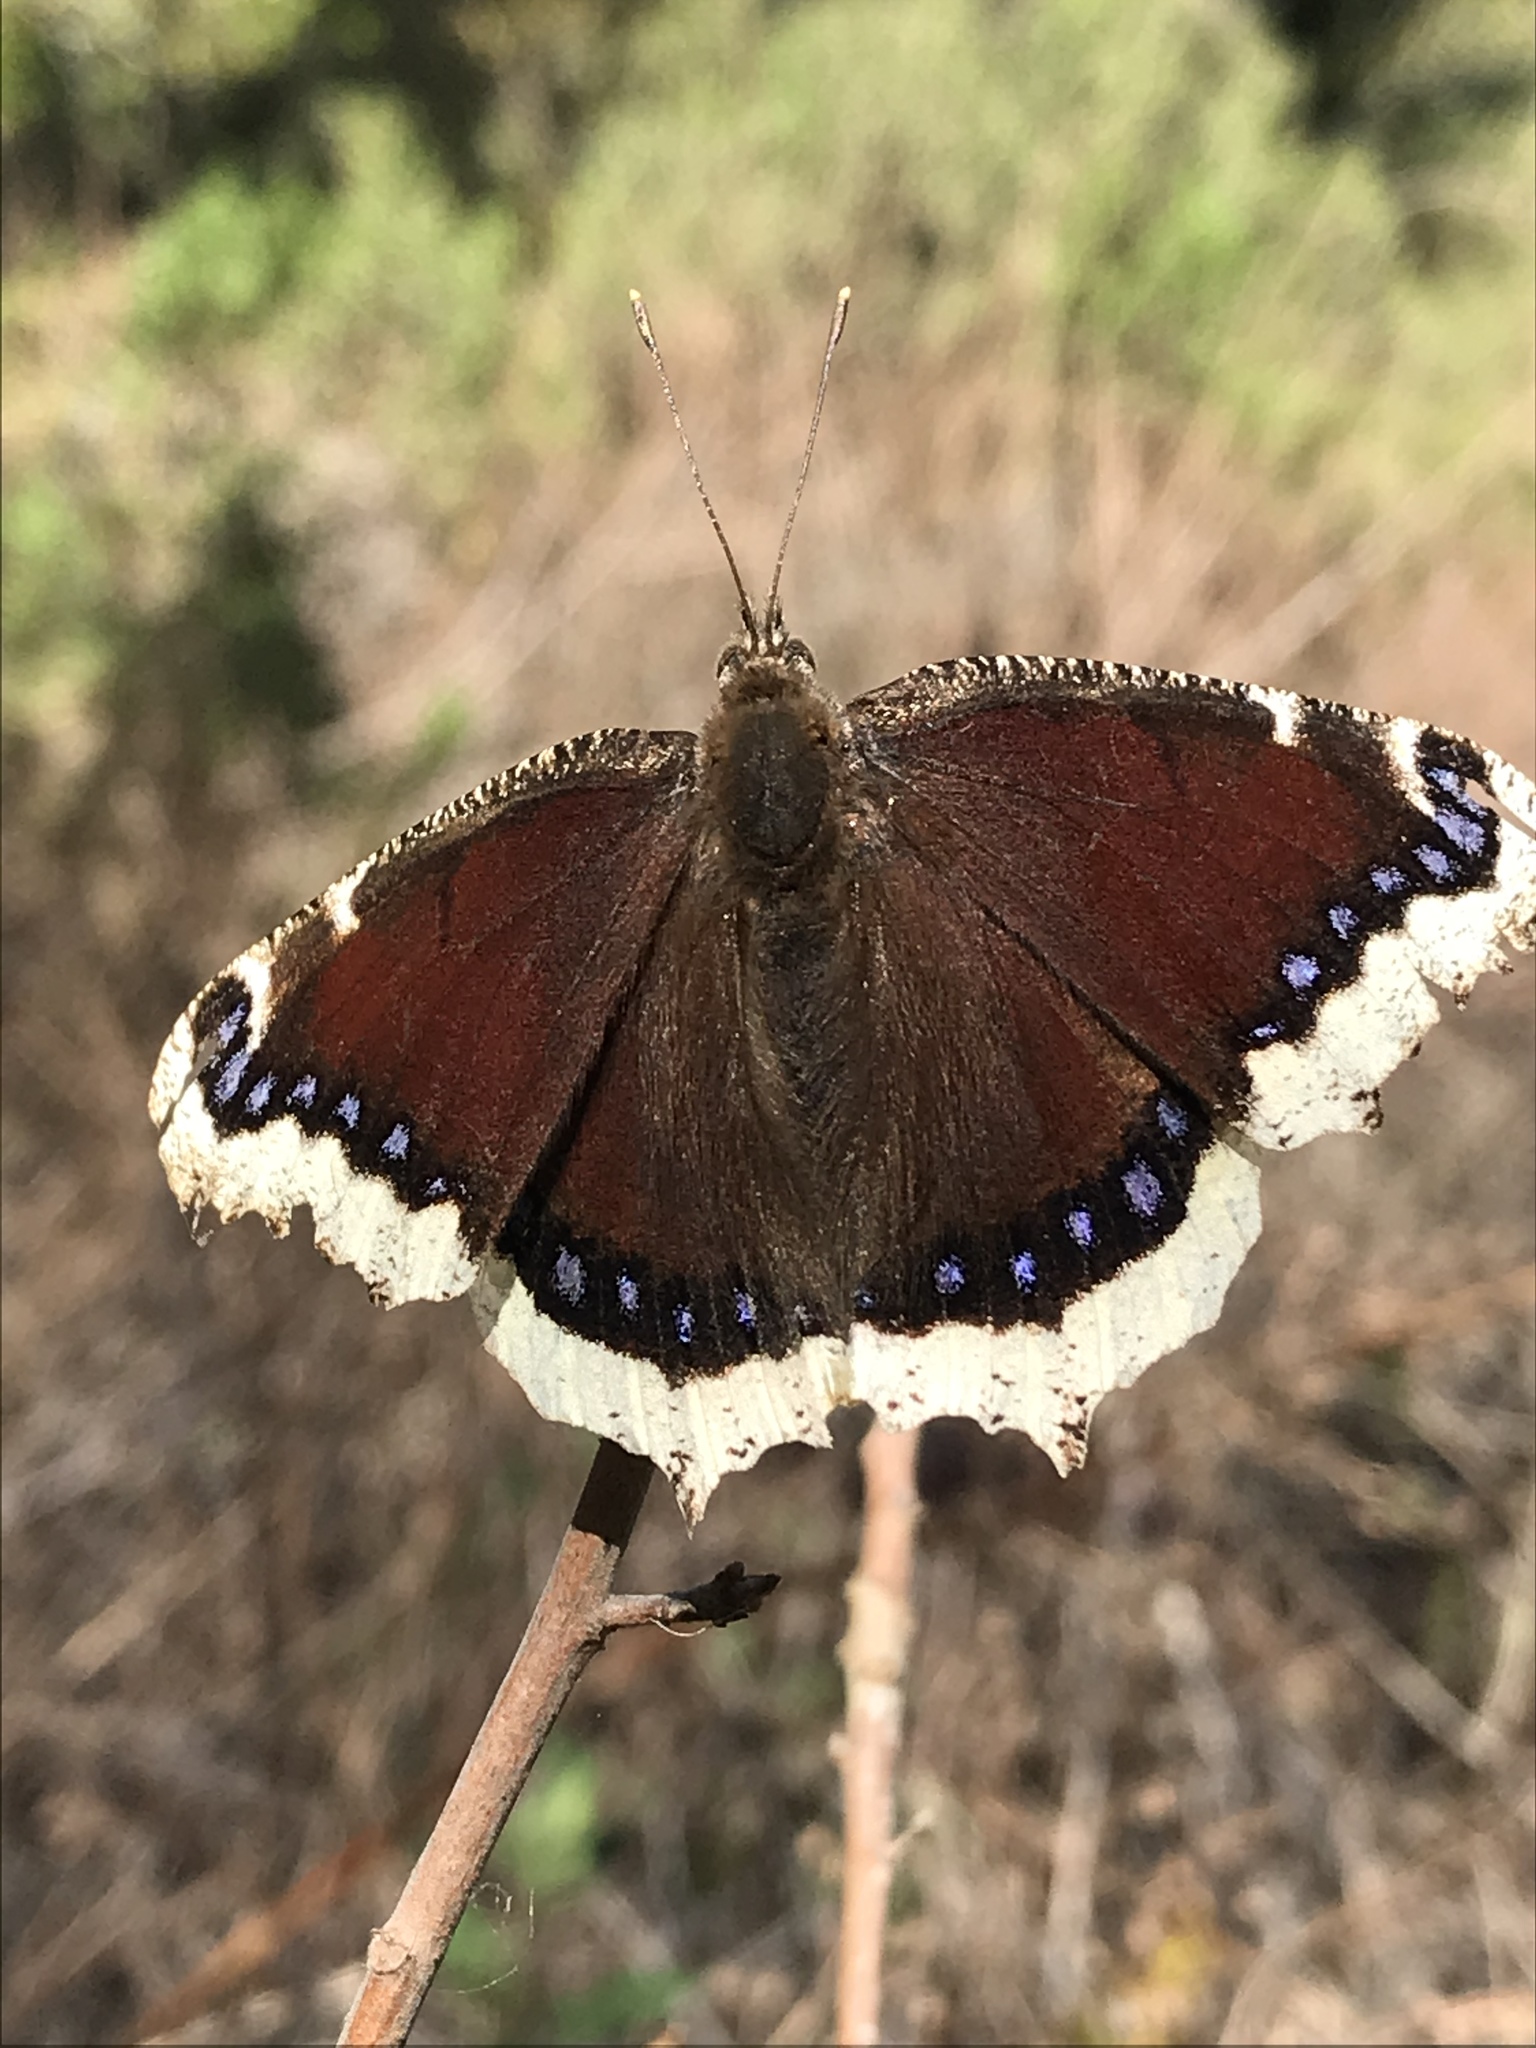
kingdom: Animalia
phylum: Arthropoda
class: Insecta
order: Lepidoptera
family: Nymphalidae
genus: Nymphalis
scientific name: Nymphalis antiopa
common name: Camberwell beauty
